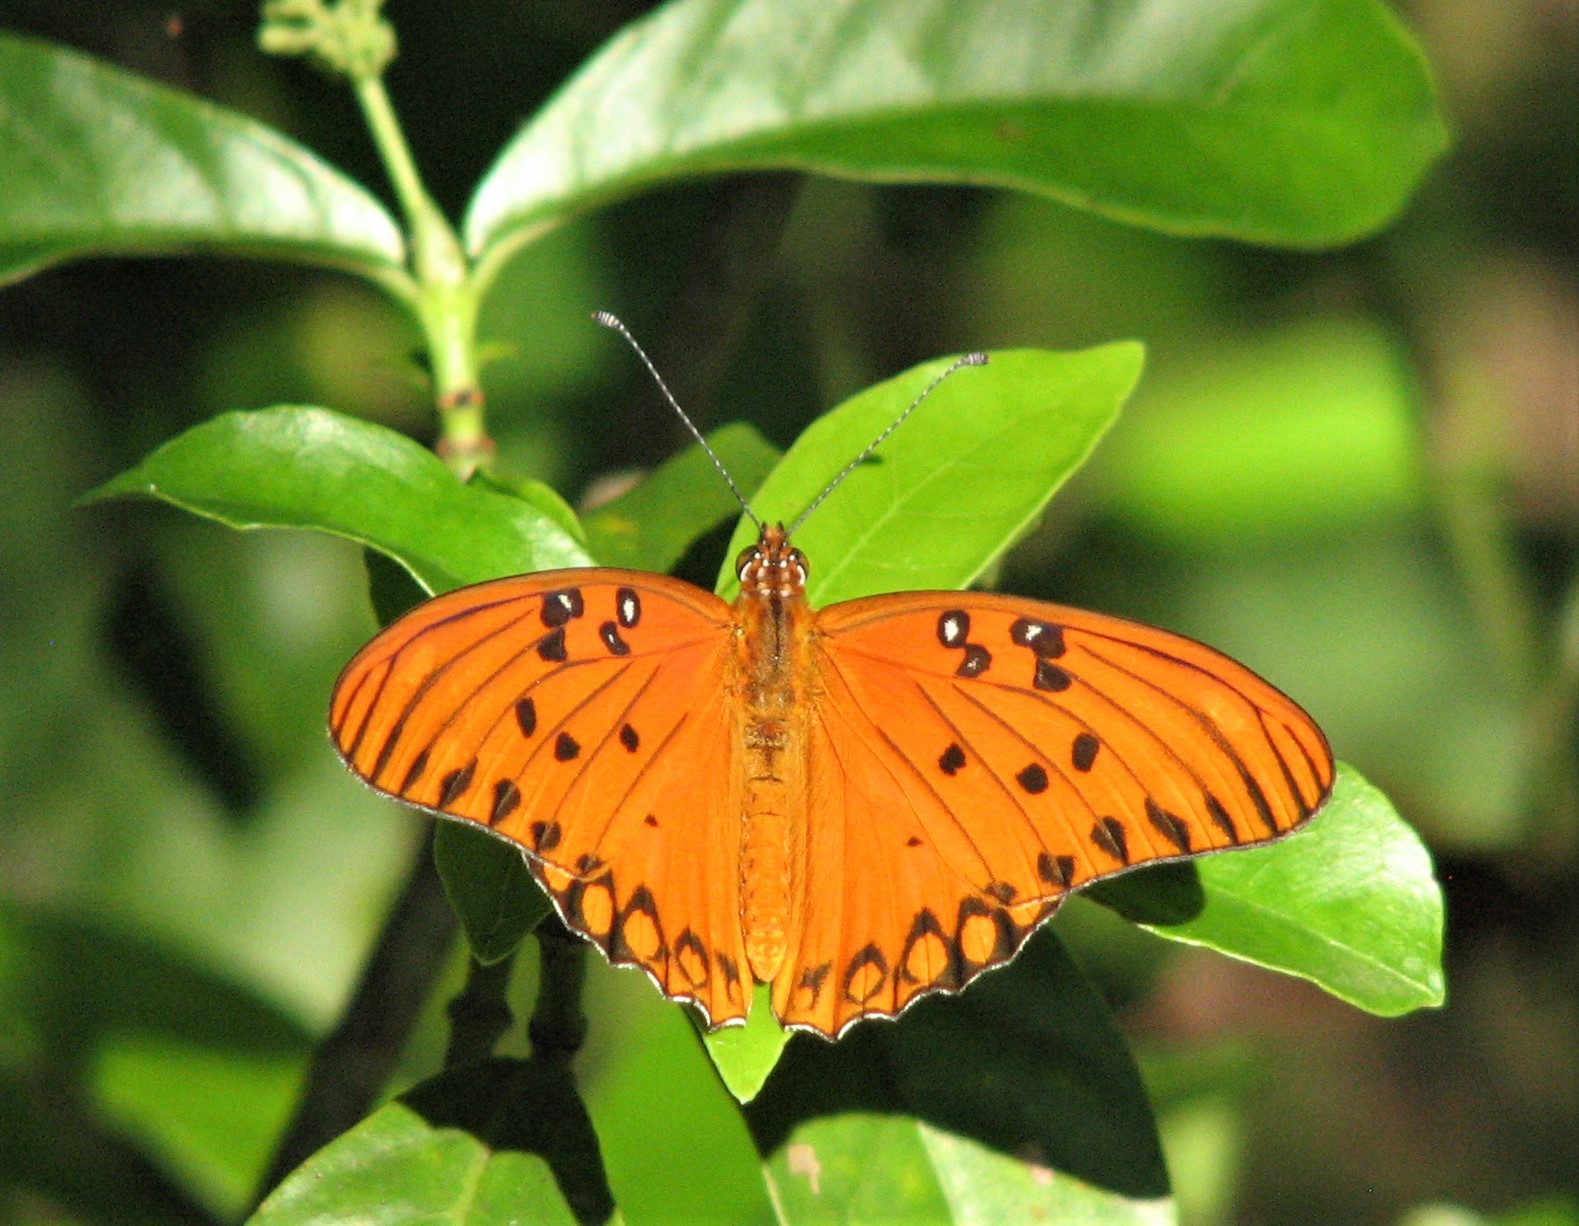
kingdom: Animalia
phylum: Arthropoda
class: Insecta
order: Lepidoptera
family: Nymphalidae
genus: Dione
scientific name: Dione vanillae
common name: Gulf fritillary
